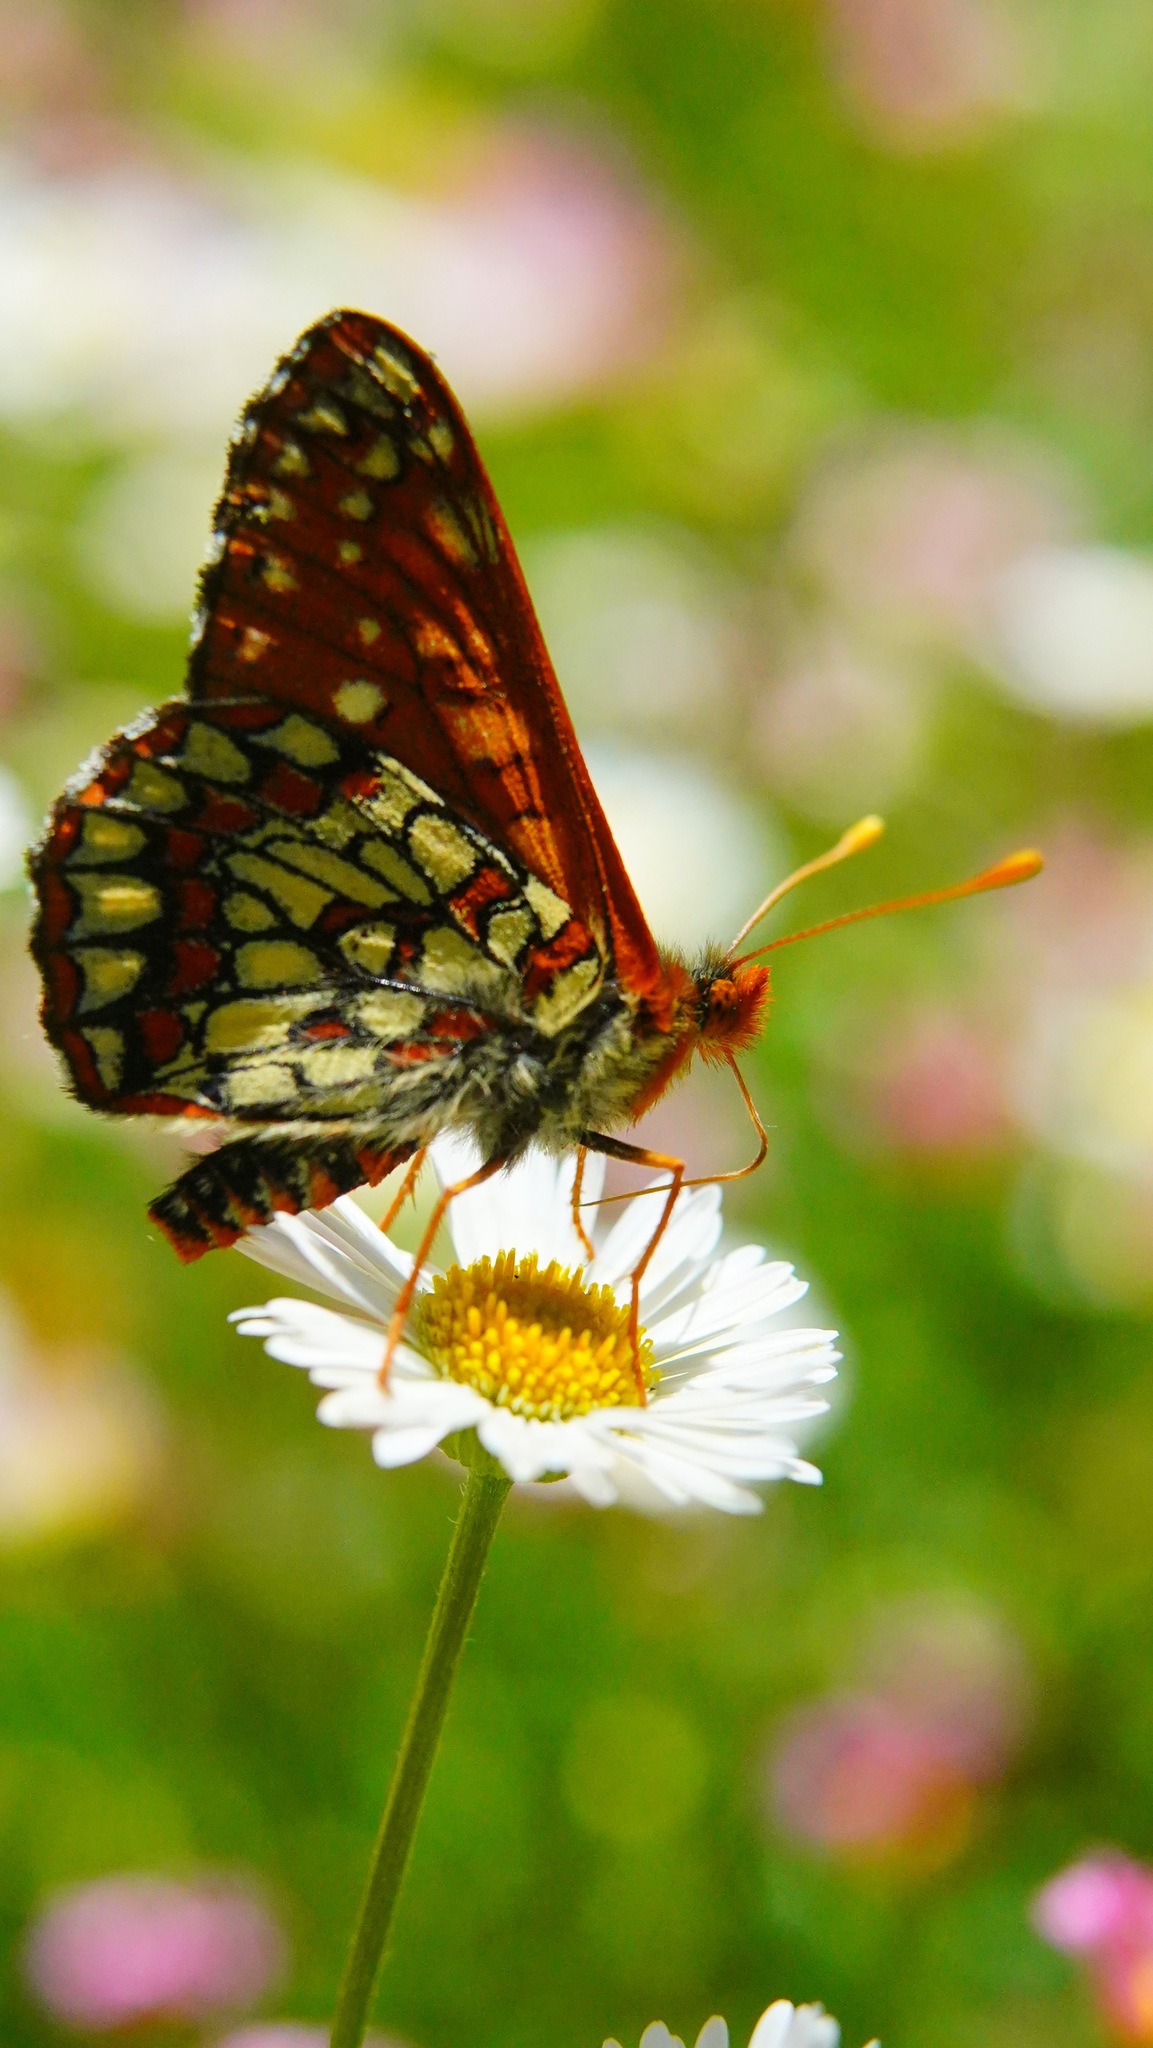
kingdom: Animalia
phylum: Arthropoda
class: Insecta
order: Lepidoptera
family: Nymphalidae
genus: Occidryas
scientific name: Occidryas chalcedona
